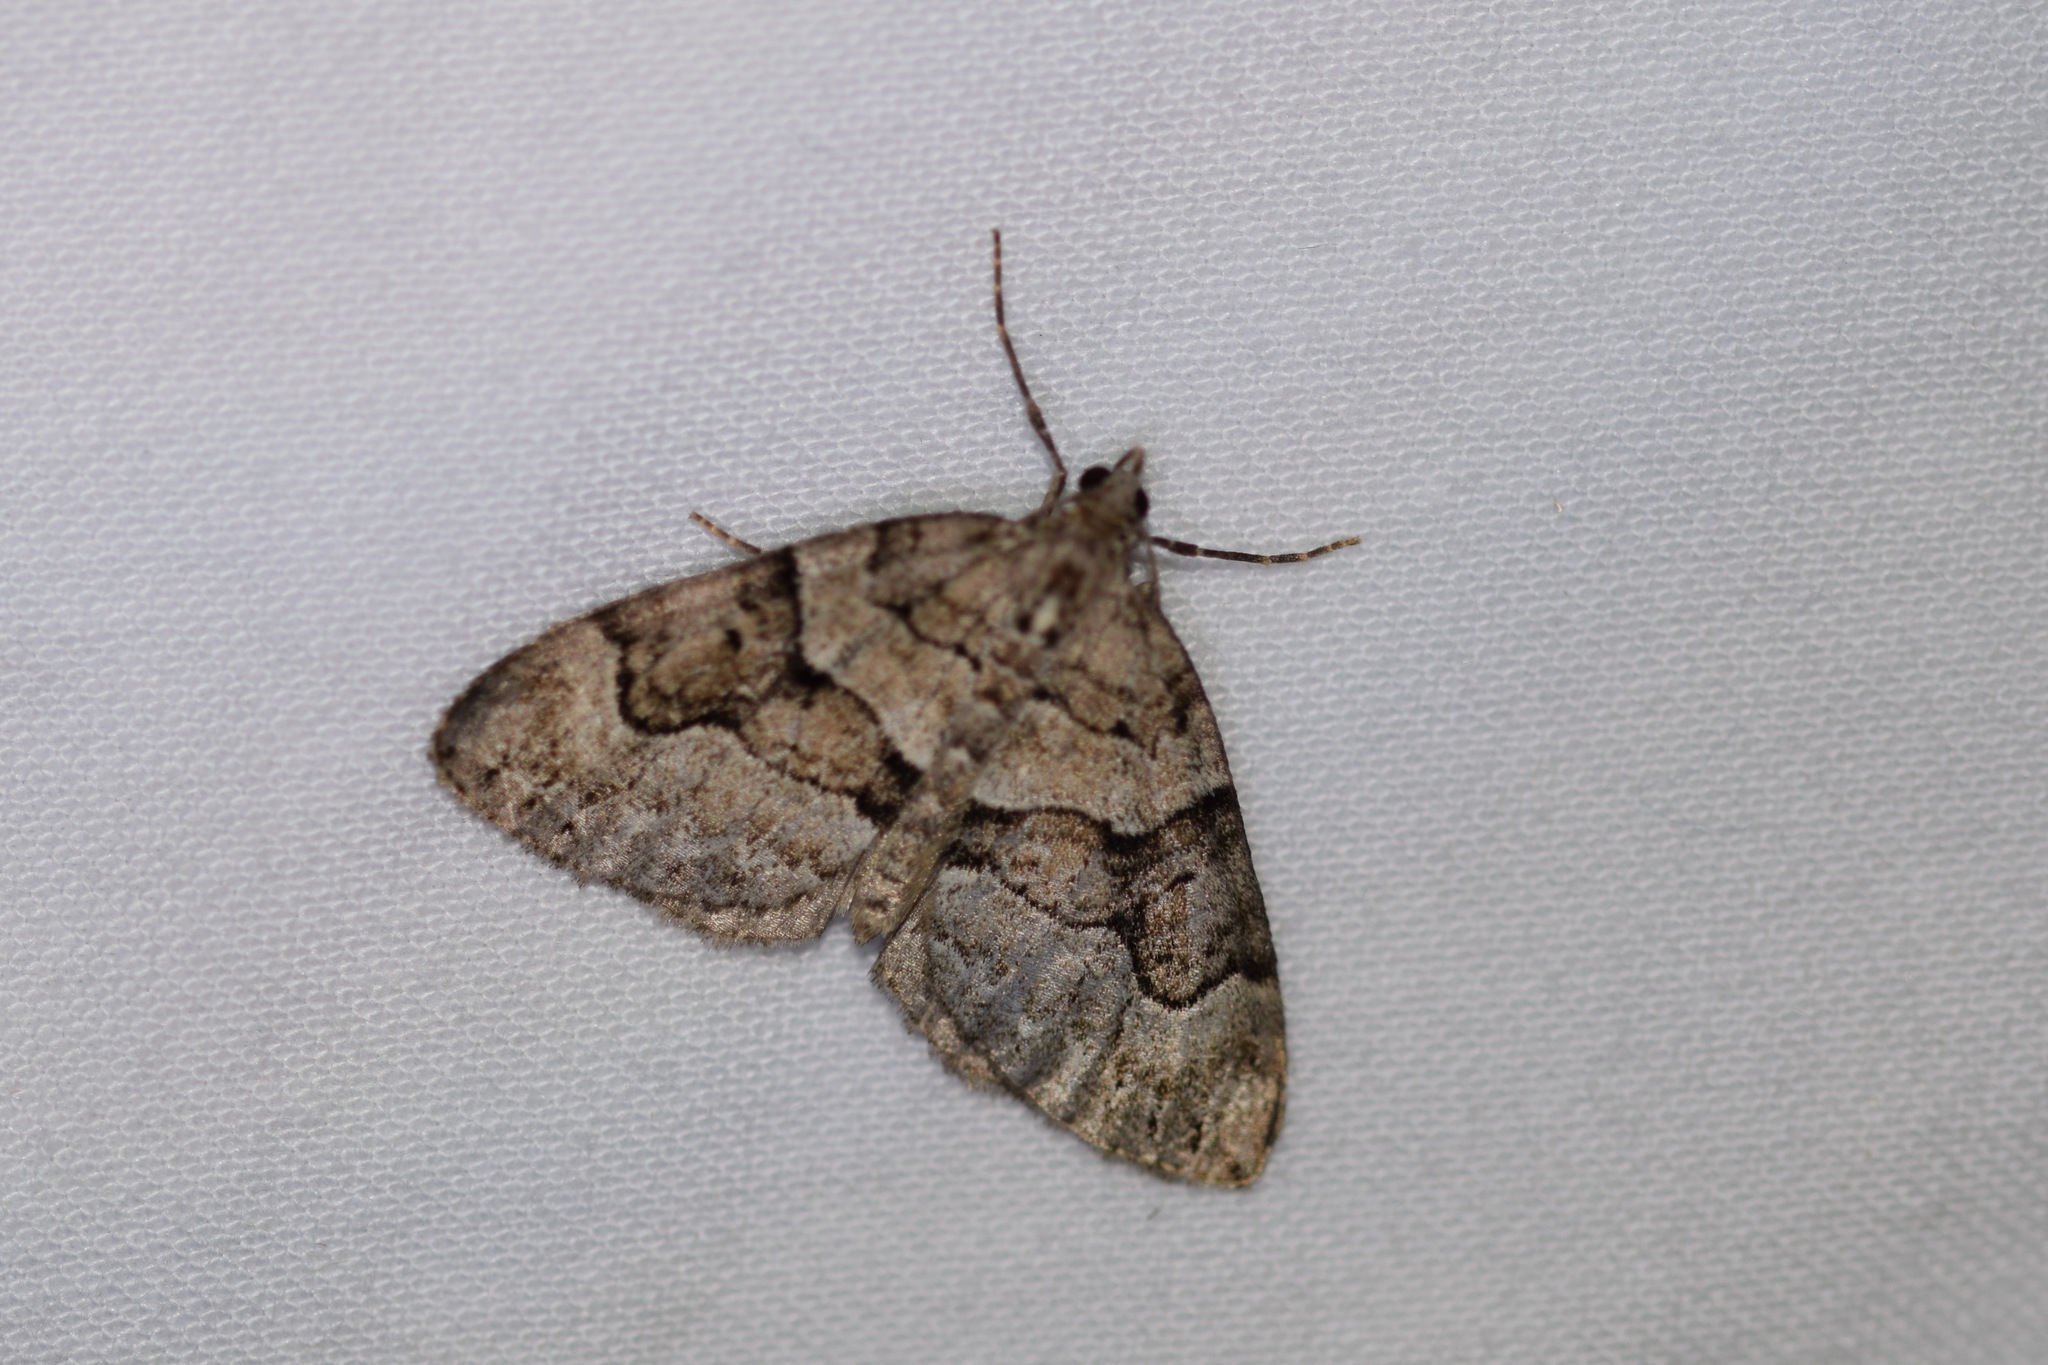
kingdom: Animalia
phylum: Arthropoda
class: Insecta
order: Lepidoptera
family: Geometridae
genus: Thera
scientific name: Thera contractata
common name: Contracted spanworm
